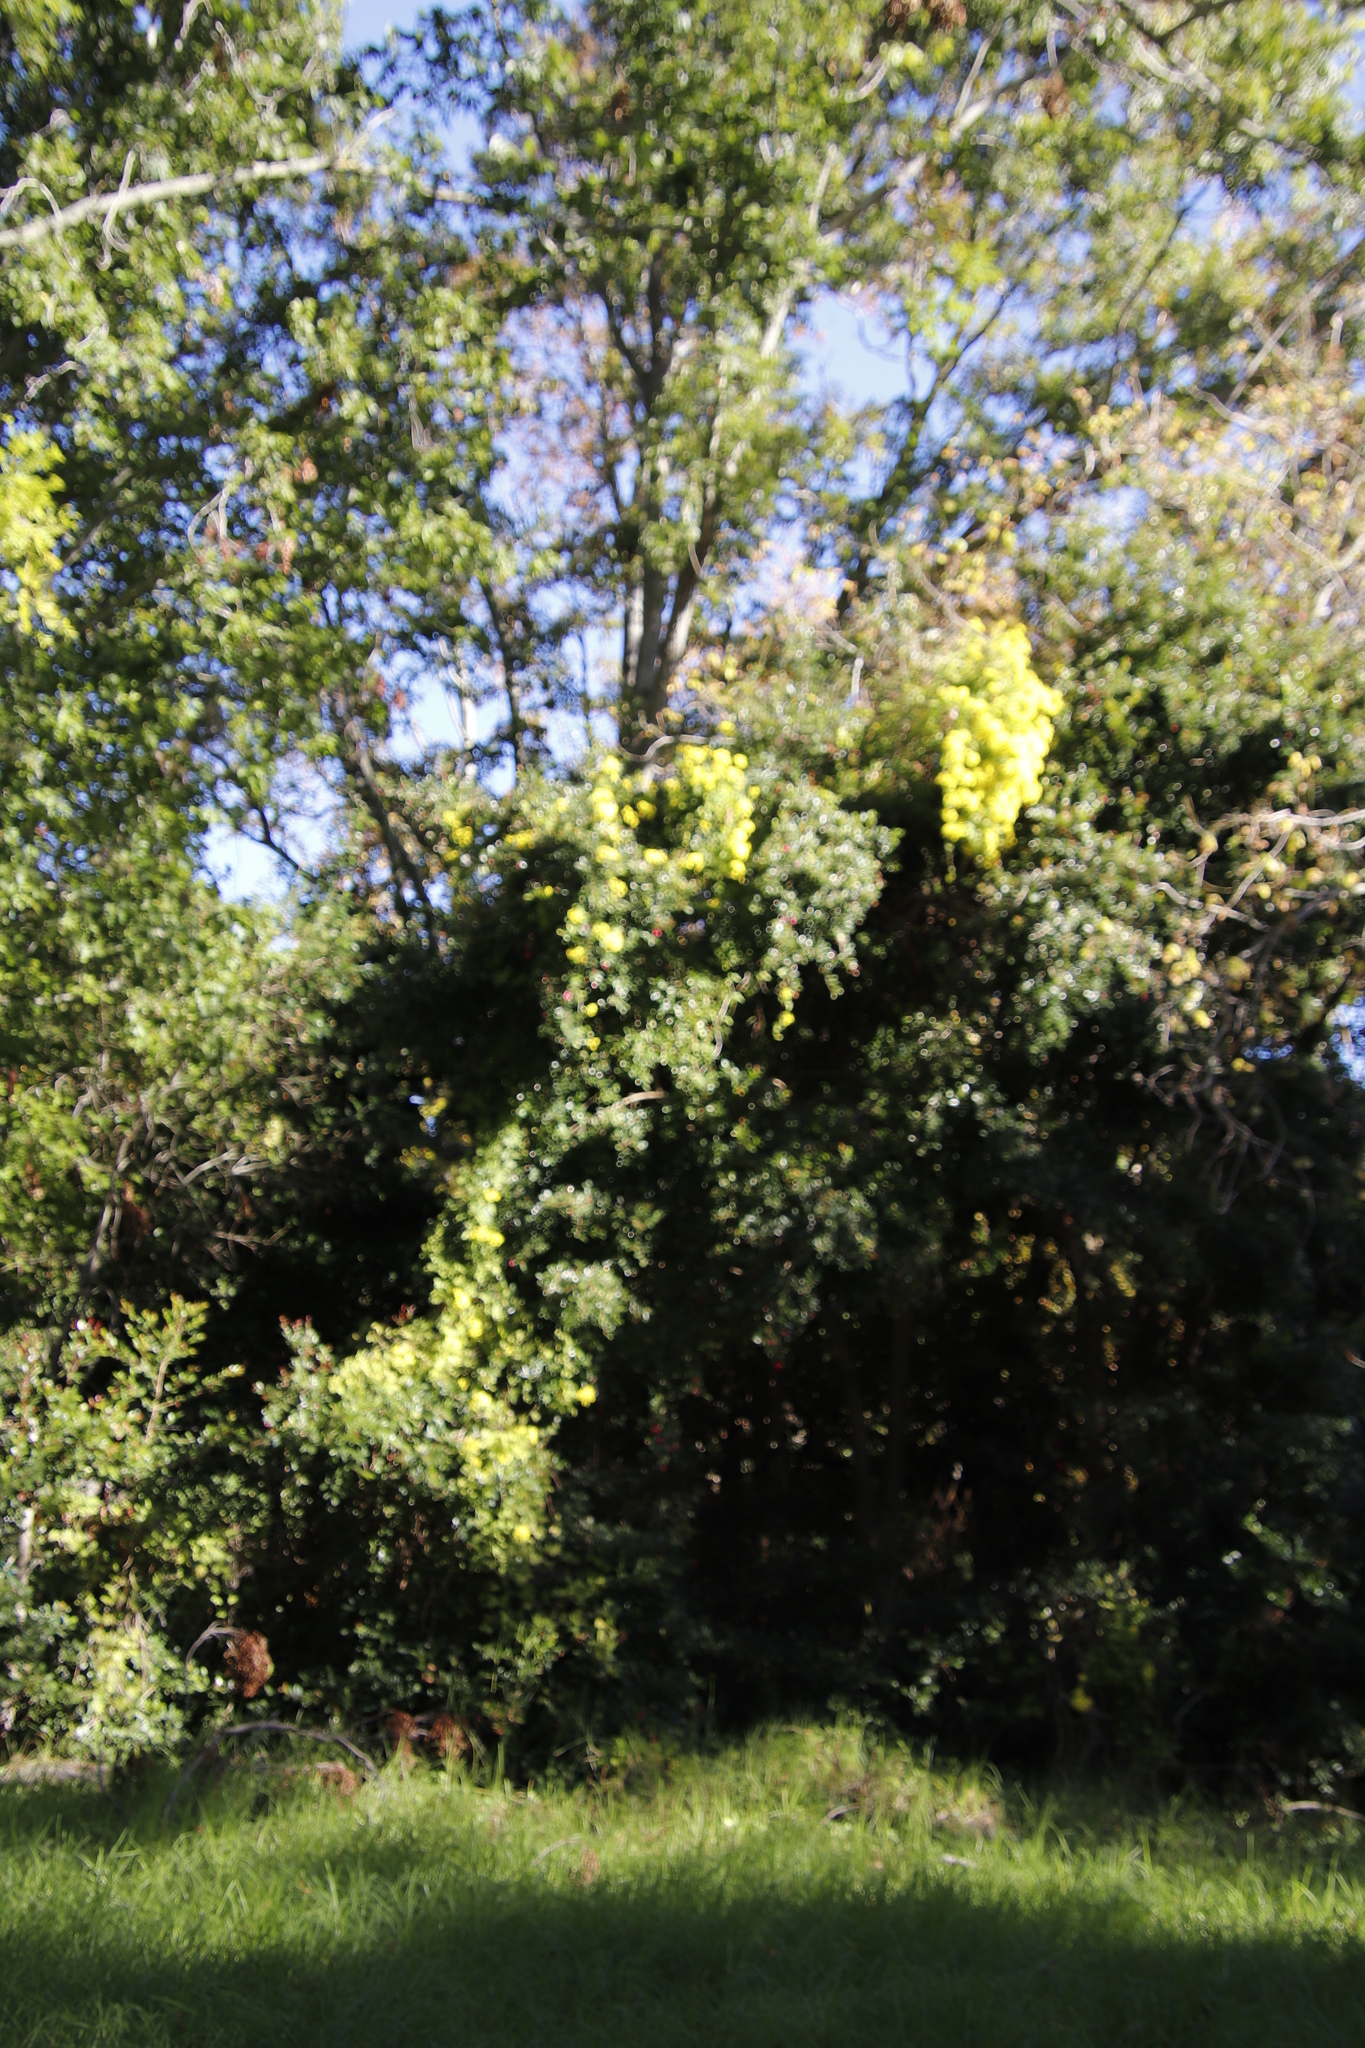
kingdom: Plantae
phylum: Tracheophyta
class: Magnoliopsida
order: Asterales
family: Asteraceae
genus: Senecio
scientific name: Senecio tamoides
